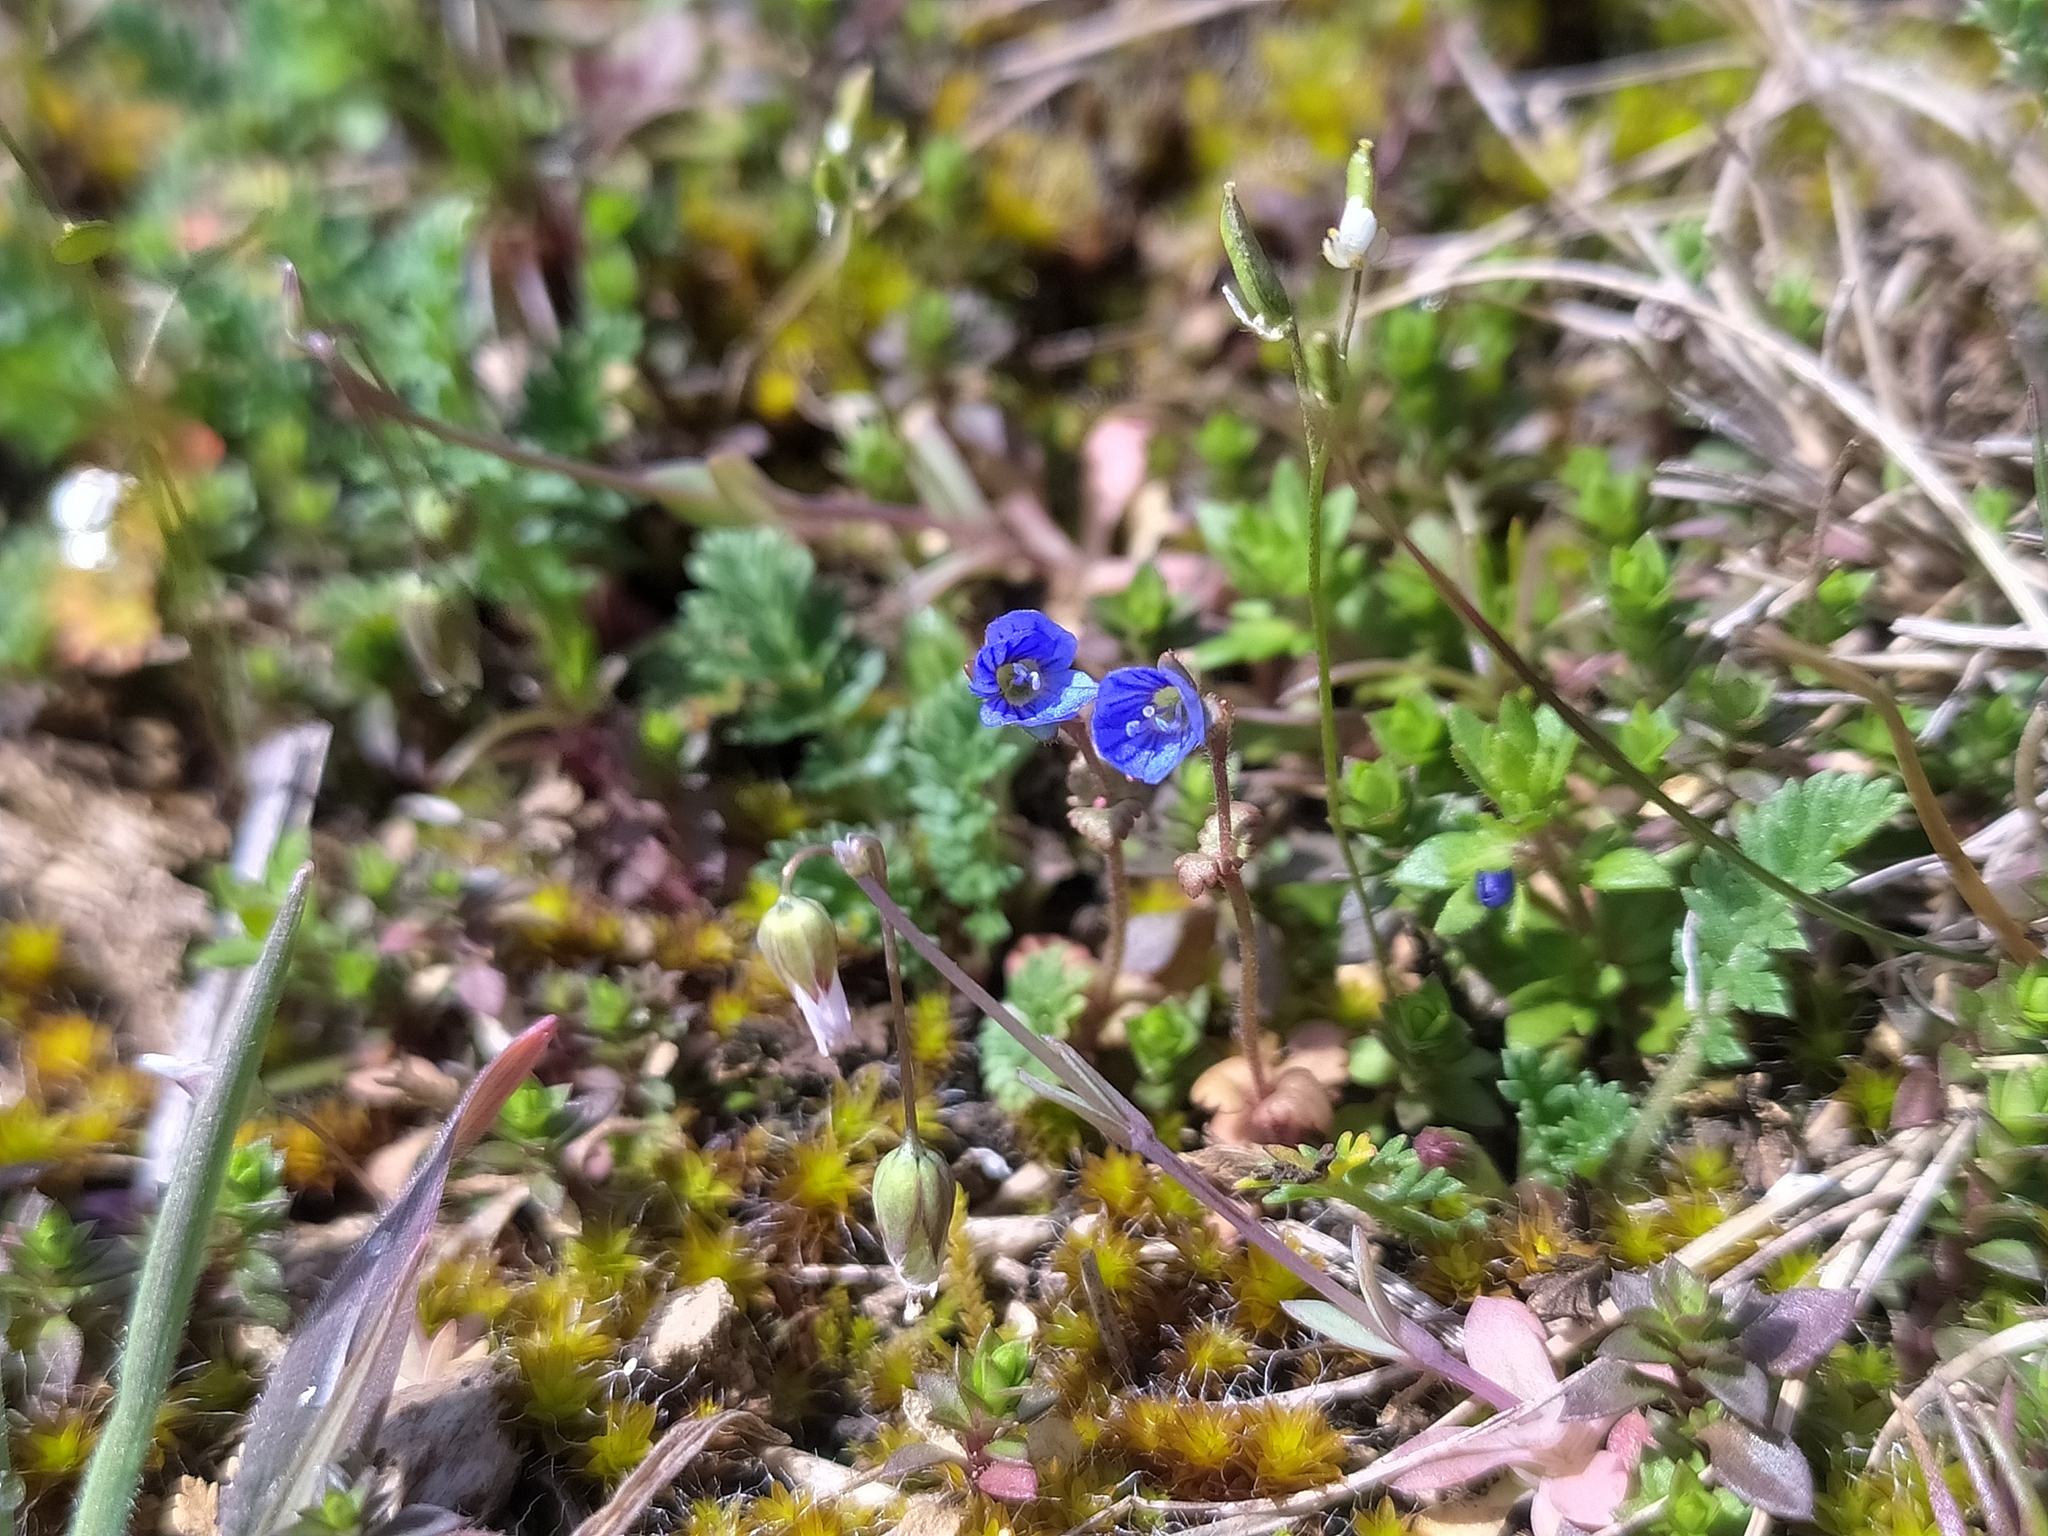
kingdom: Plantae
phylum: Tracheophyta
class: Magnoliopsida
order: Lamiales
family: Plantaginaceae
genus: Veronica
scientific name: Veronica praecox
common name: Breckland speedwell
